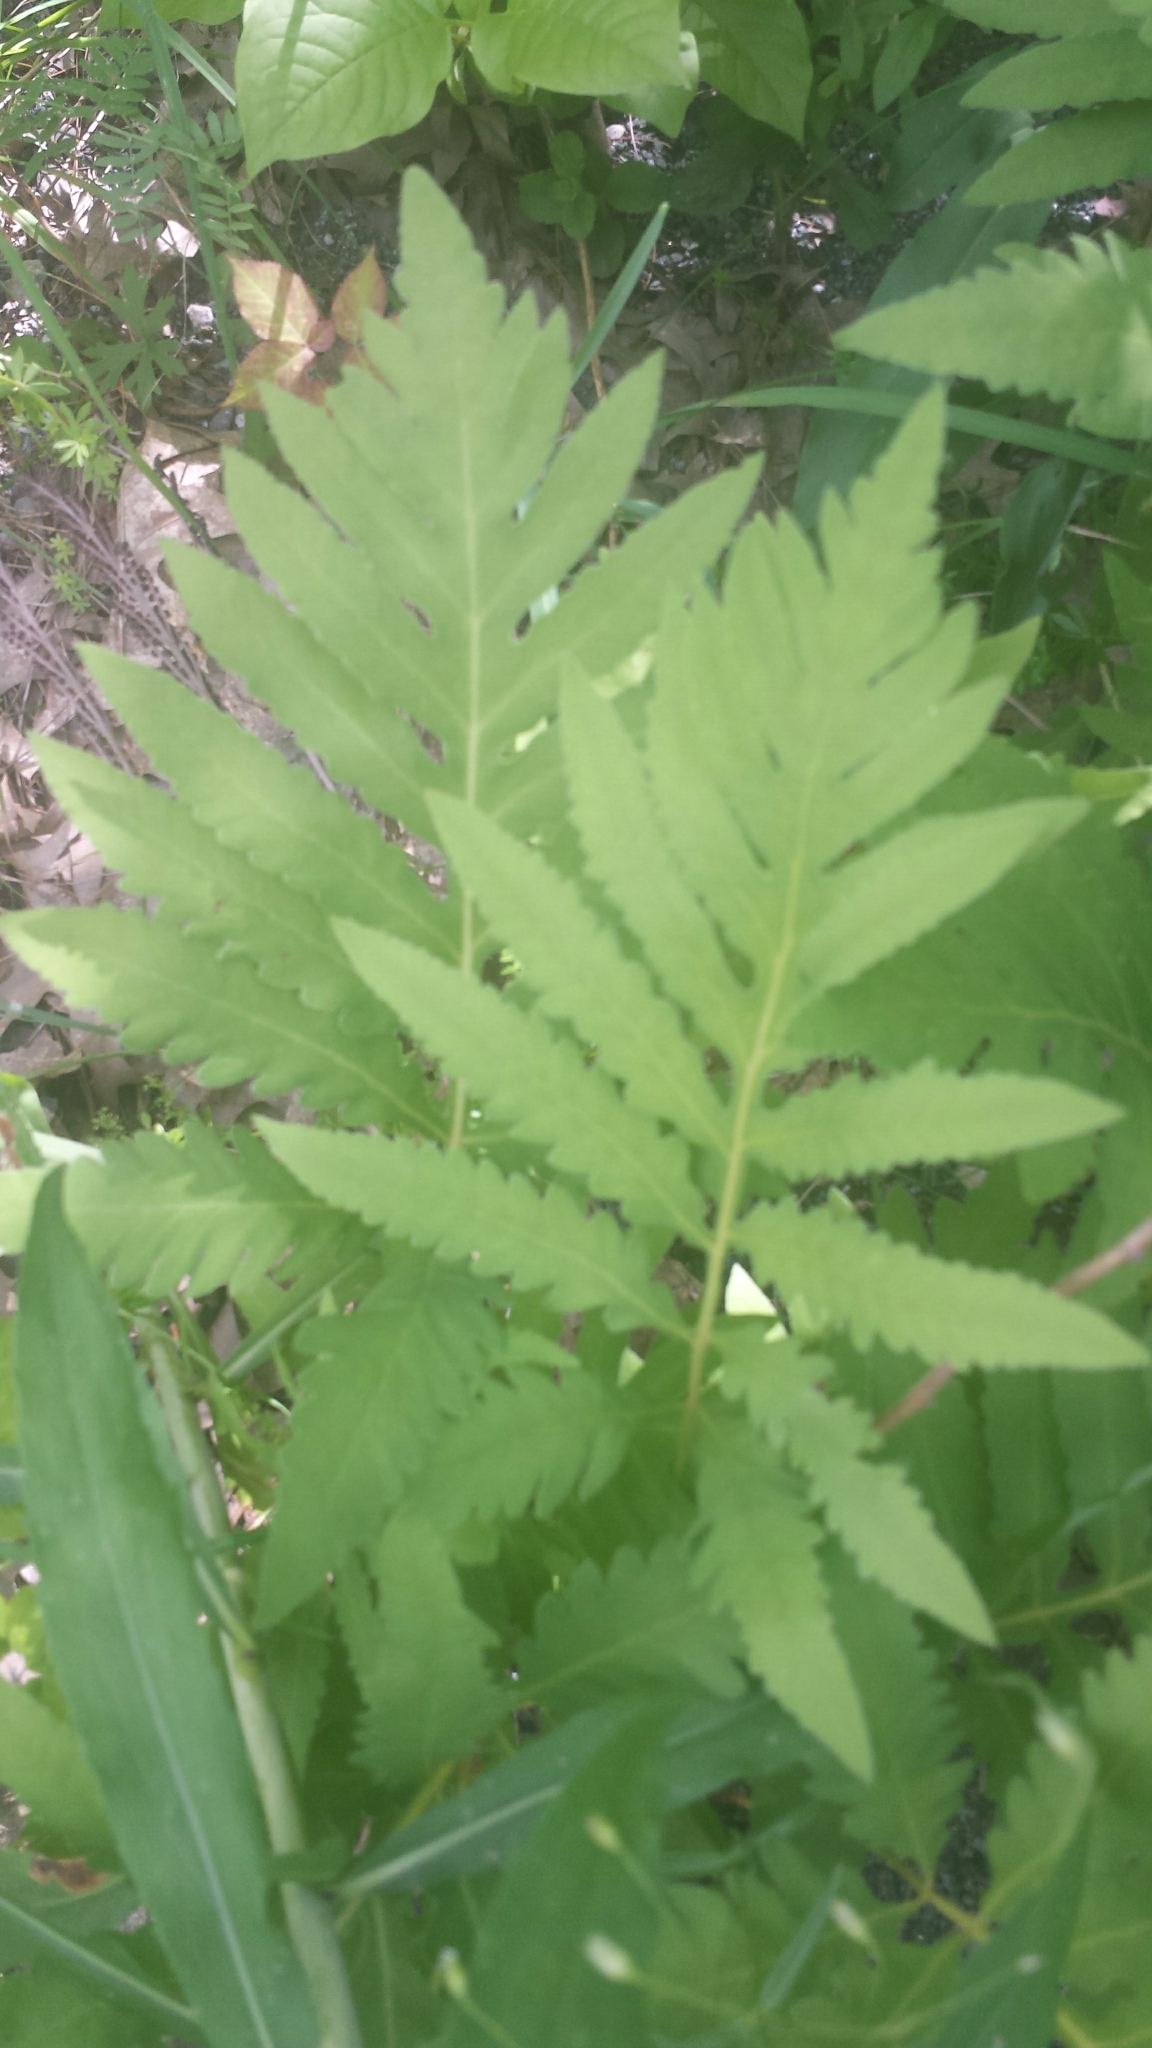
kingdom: Plantae
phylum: Tracheophyta
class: Polypodiopsida
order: Polypodiales
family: Onocleaceae
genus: Onoclea
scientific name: Onoclea sensibilis
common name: Sensitive fern
